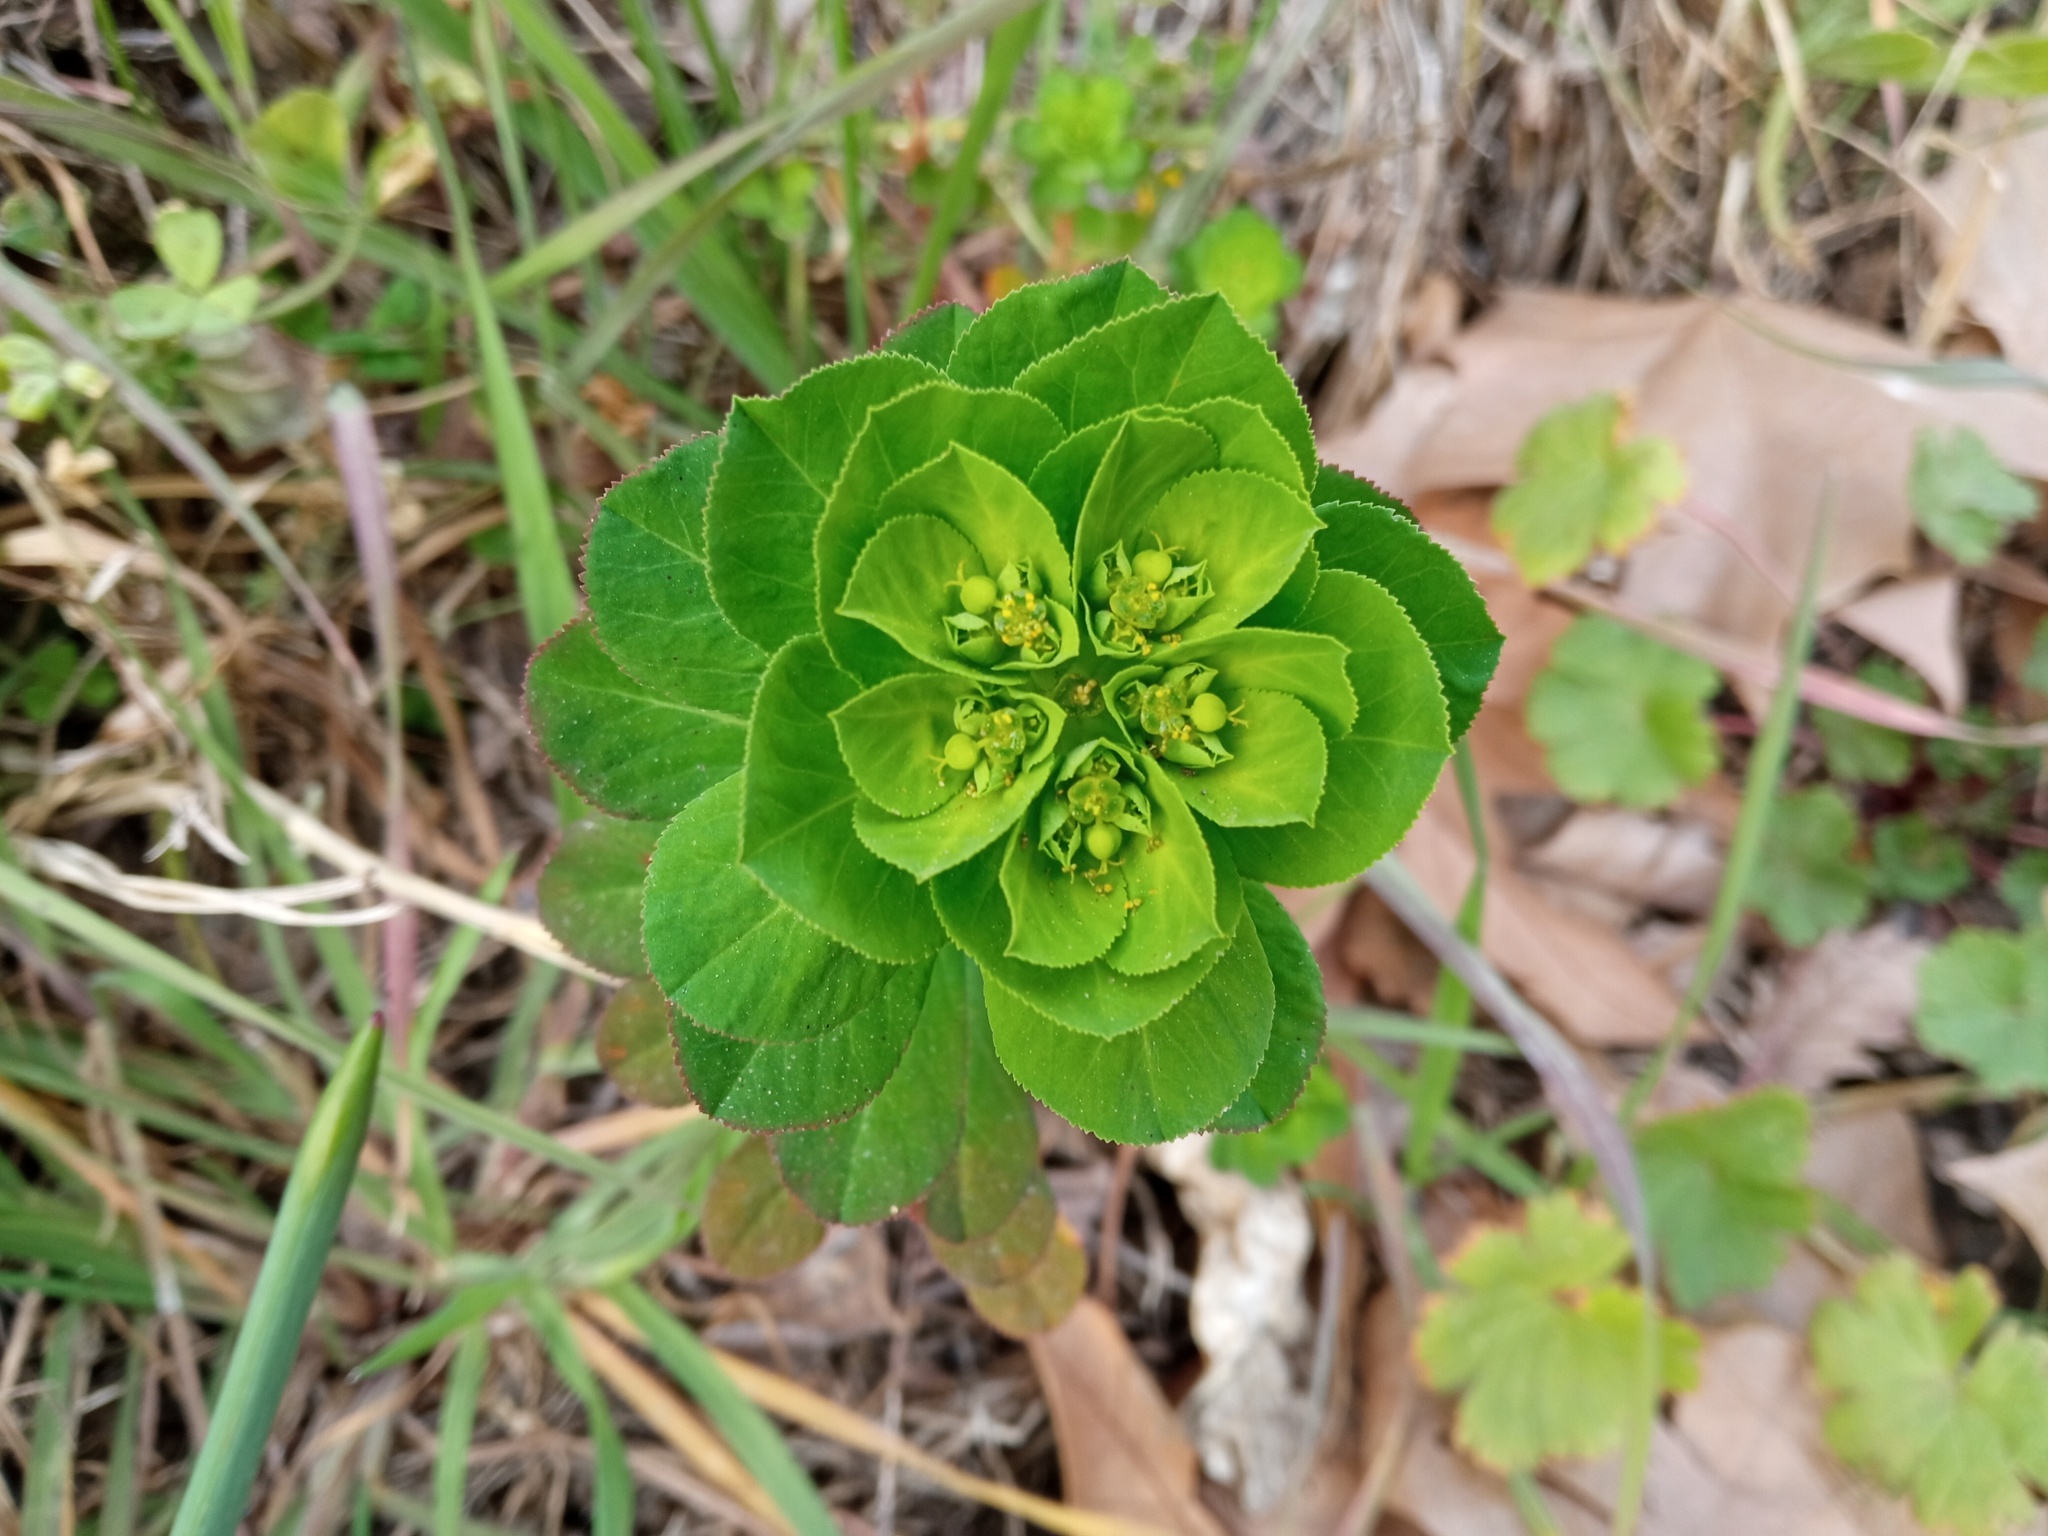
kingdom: Plantae
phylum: Tracheophyta
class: Magnoliopsida
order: Malpighiales
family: Euphorbiaceae
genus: Euphorbia
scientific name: Euphorbia helioscopia
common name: Sun spurge
